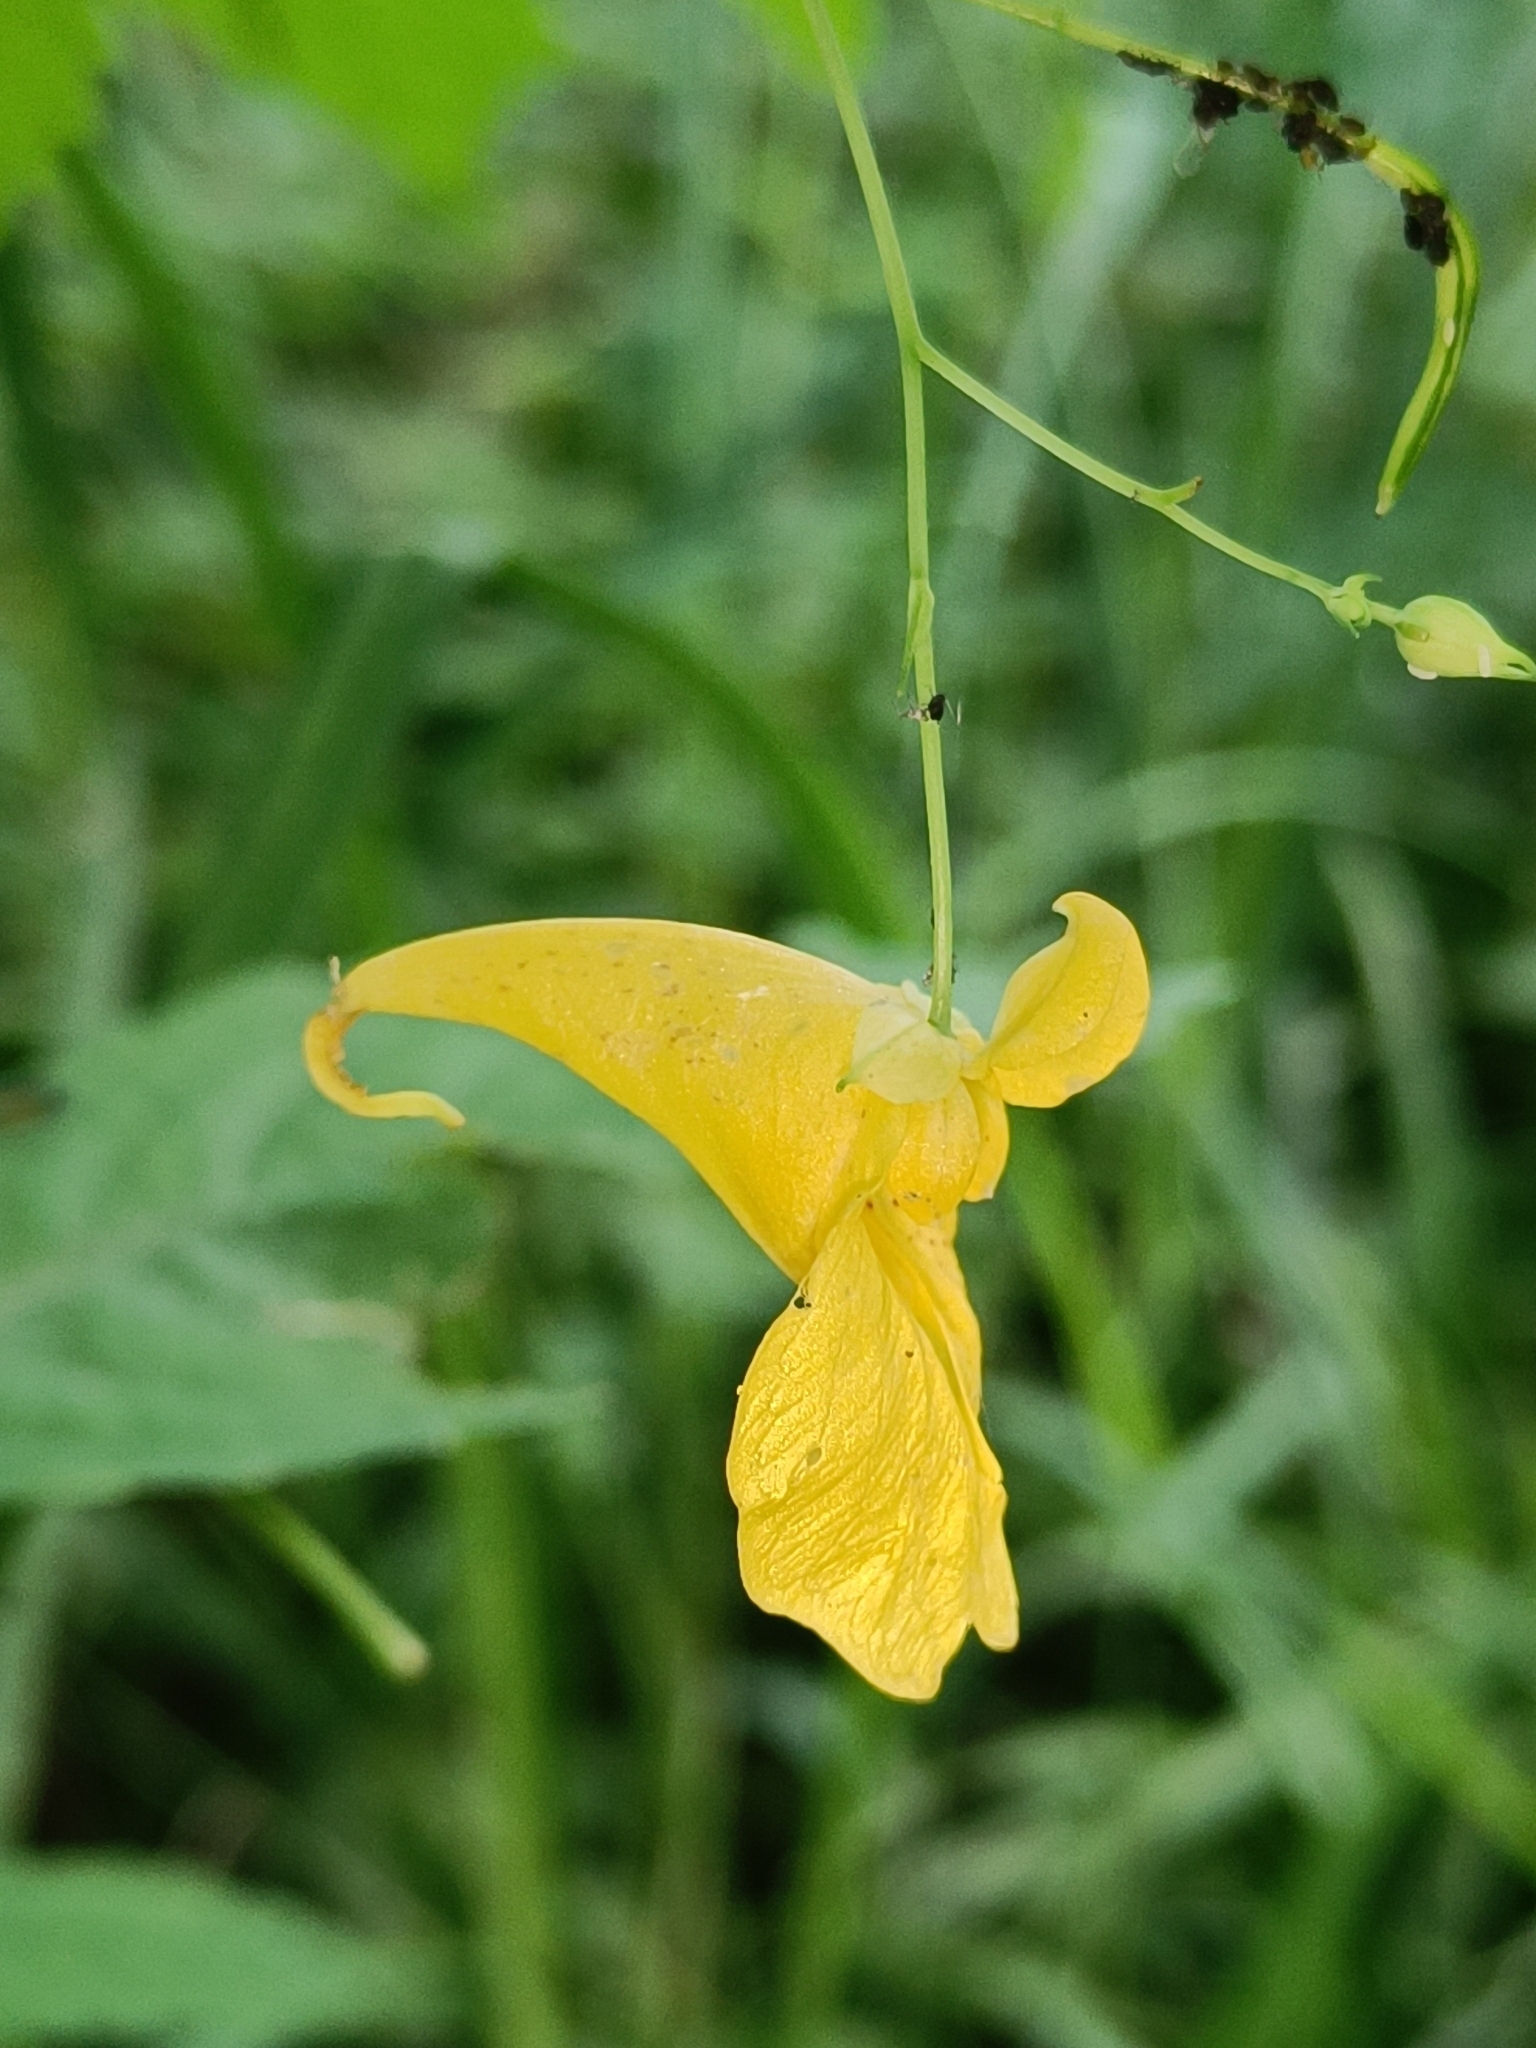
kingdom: Plantae
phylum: Tracheophyta
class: Magnoliopsida
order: Ericales
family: Balsaminaceae
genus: Impatiens
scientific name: Impatiens noli-tangere
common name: Touch-me-not balsam
